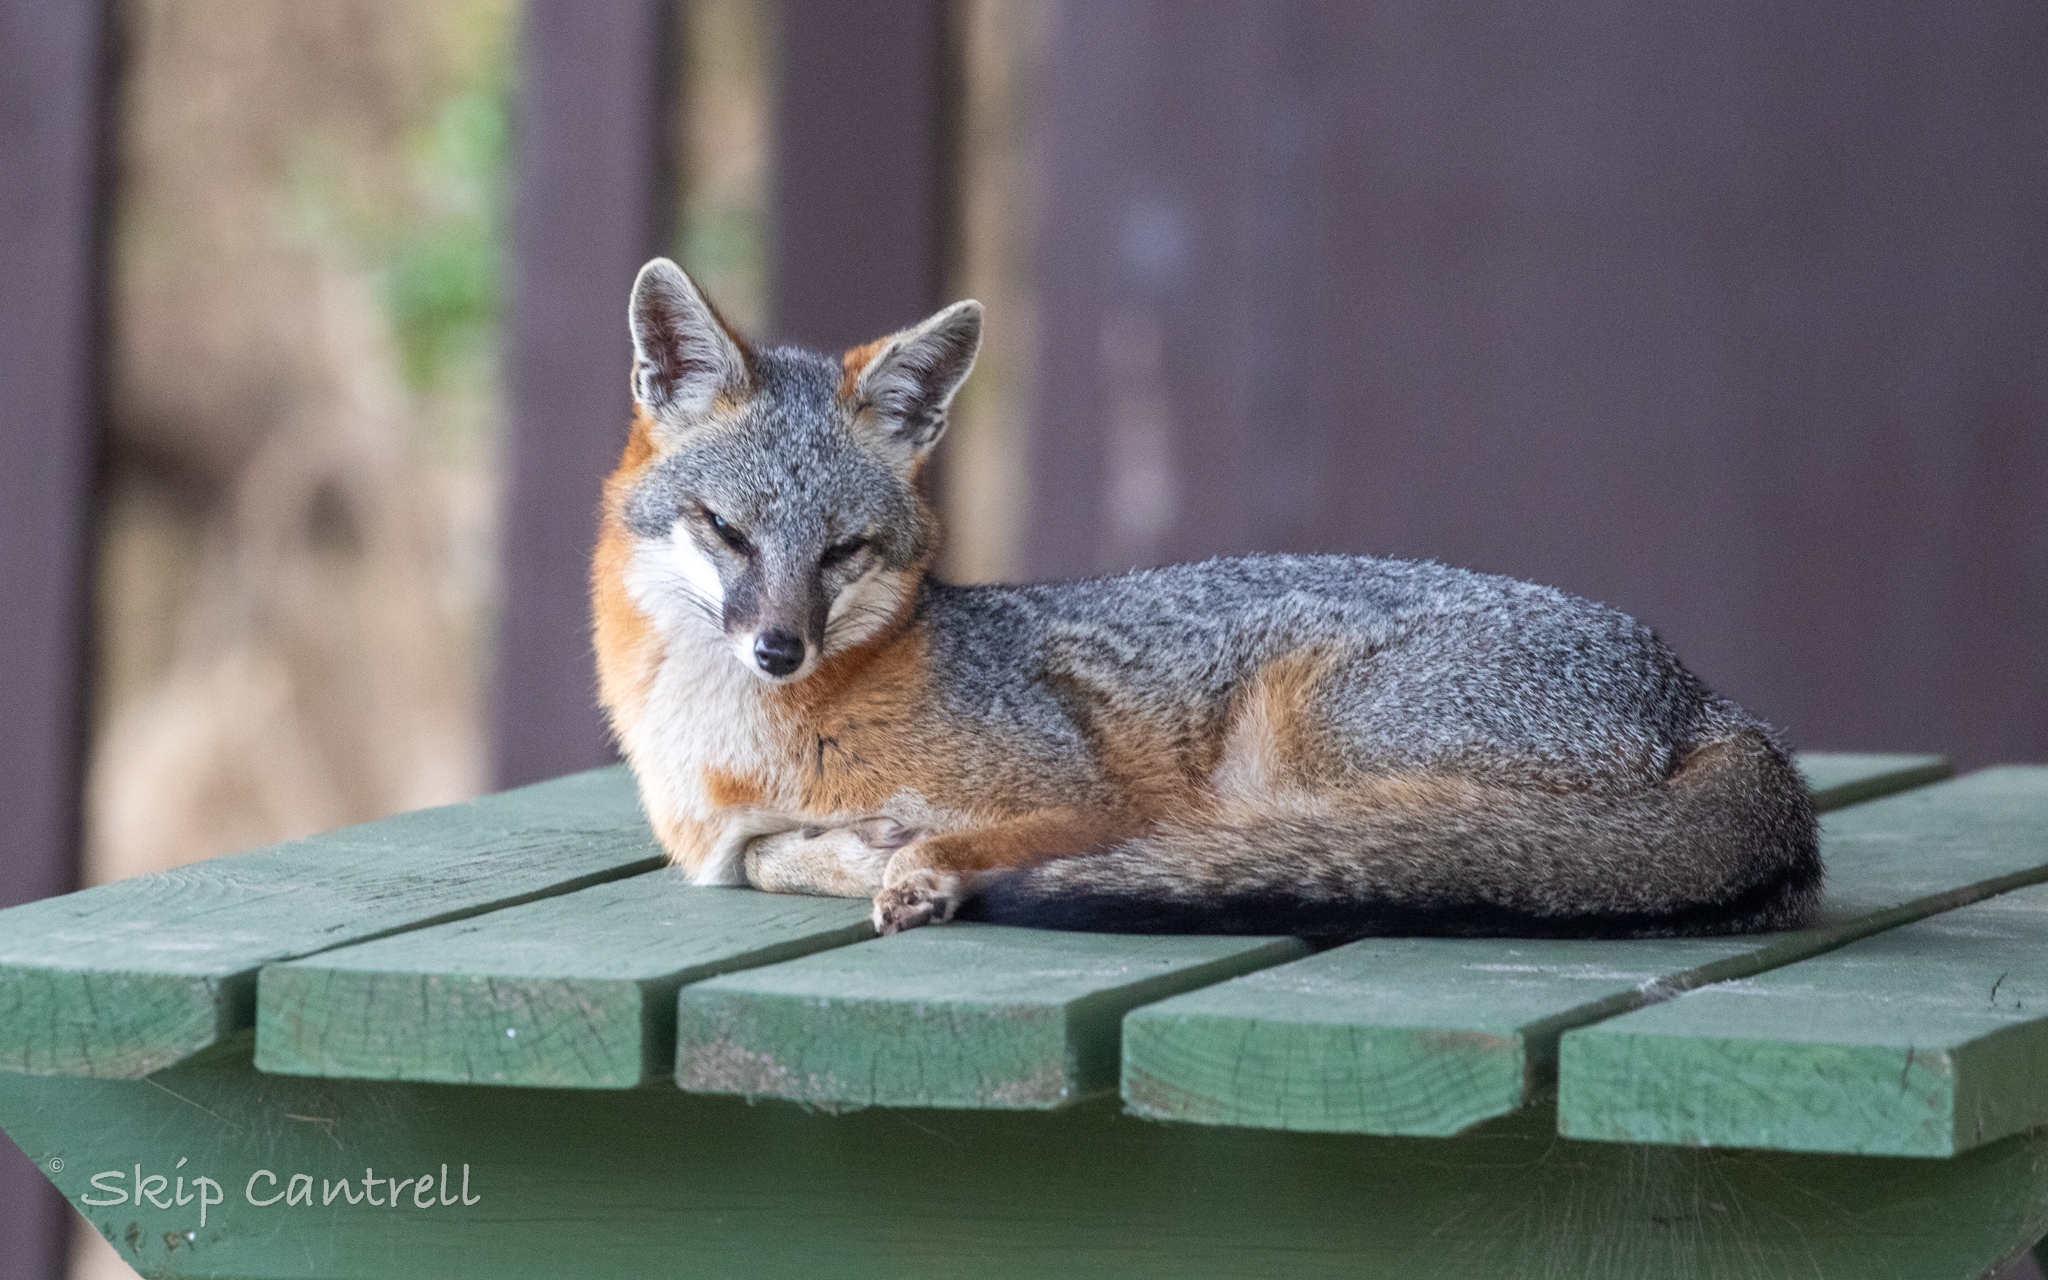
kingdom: Animalia
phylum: Chordata
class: Mammalia
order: Carnivora
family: Canidae
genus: Urocyon
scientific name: Urocyon cinereoargenteus
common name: Gray fox
